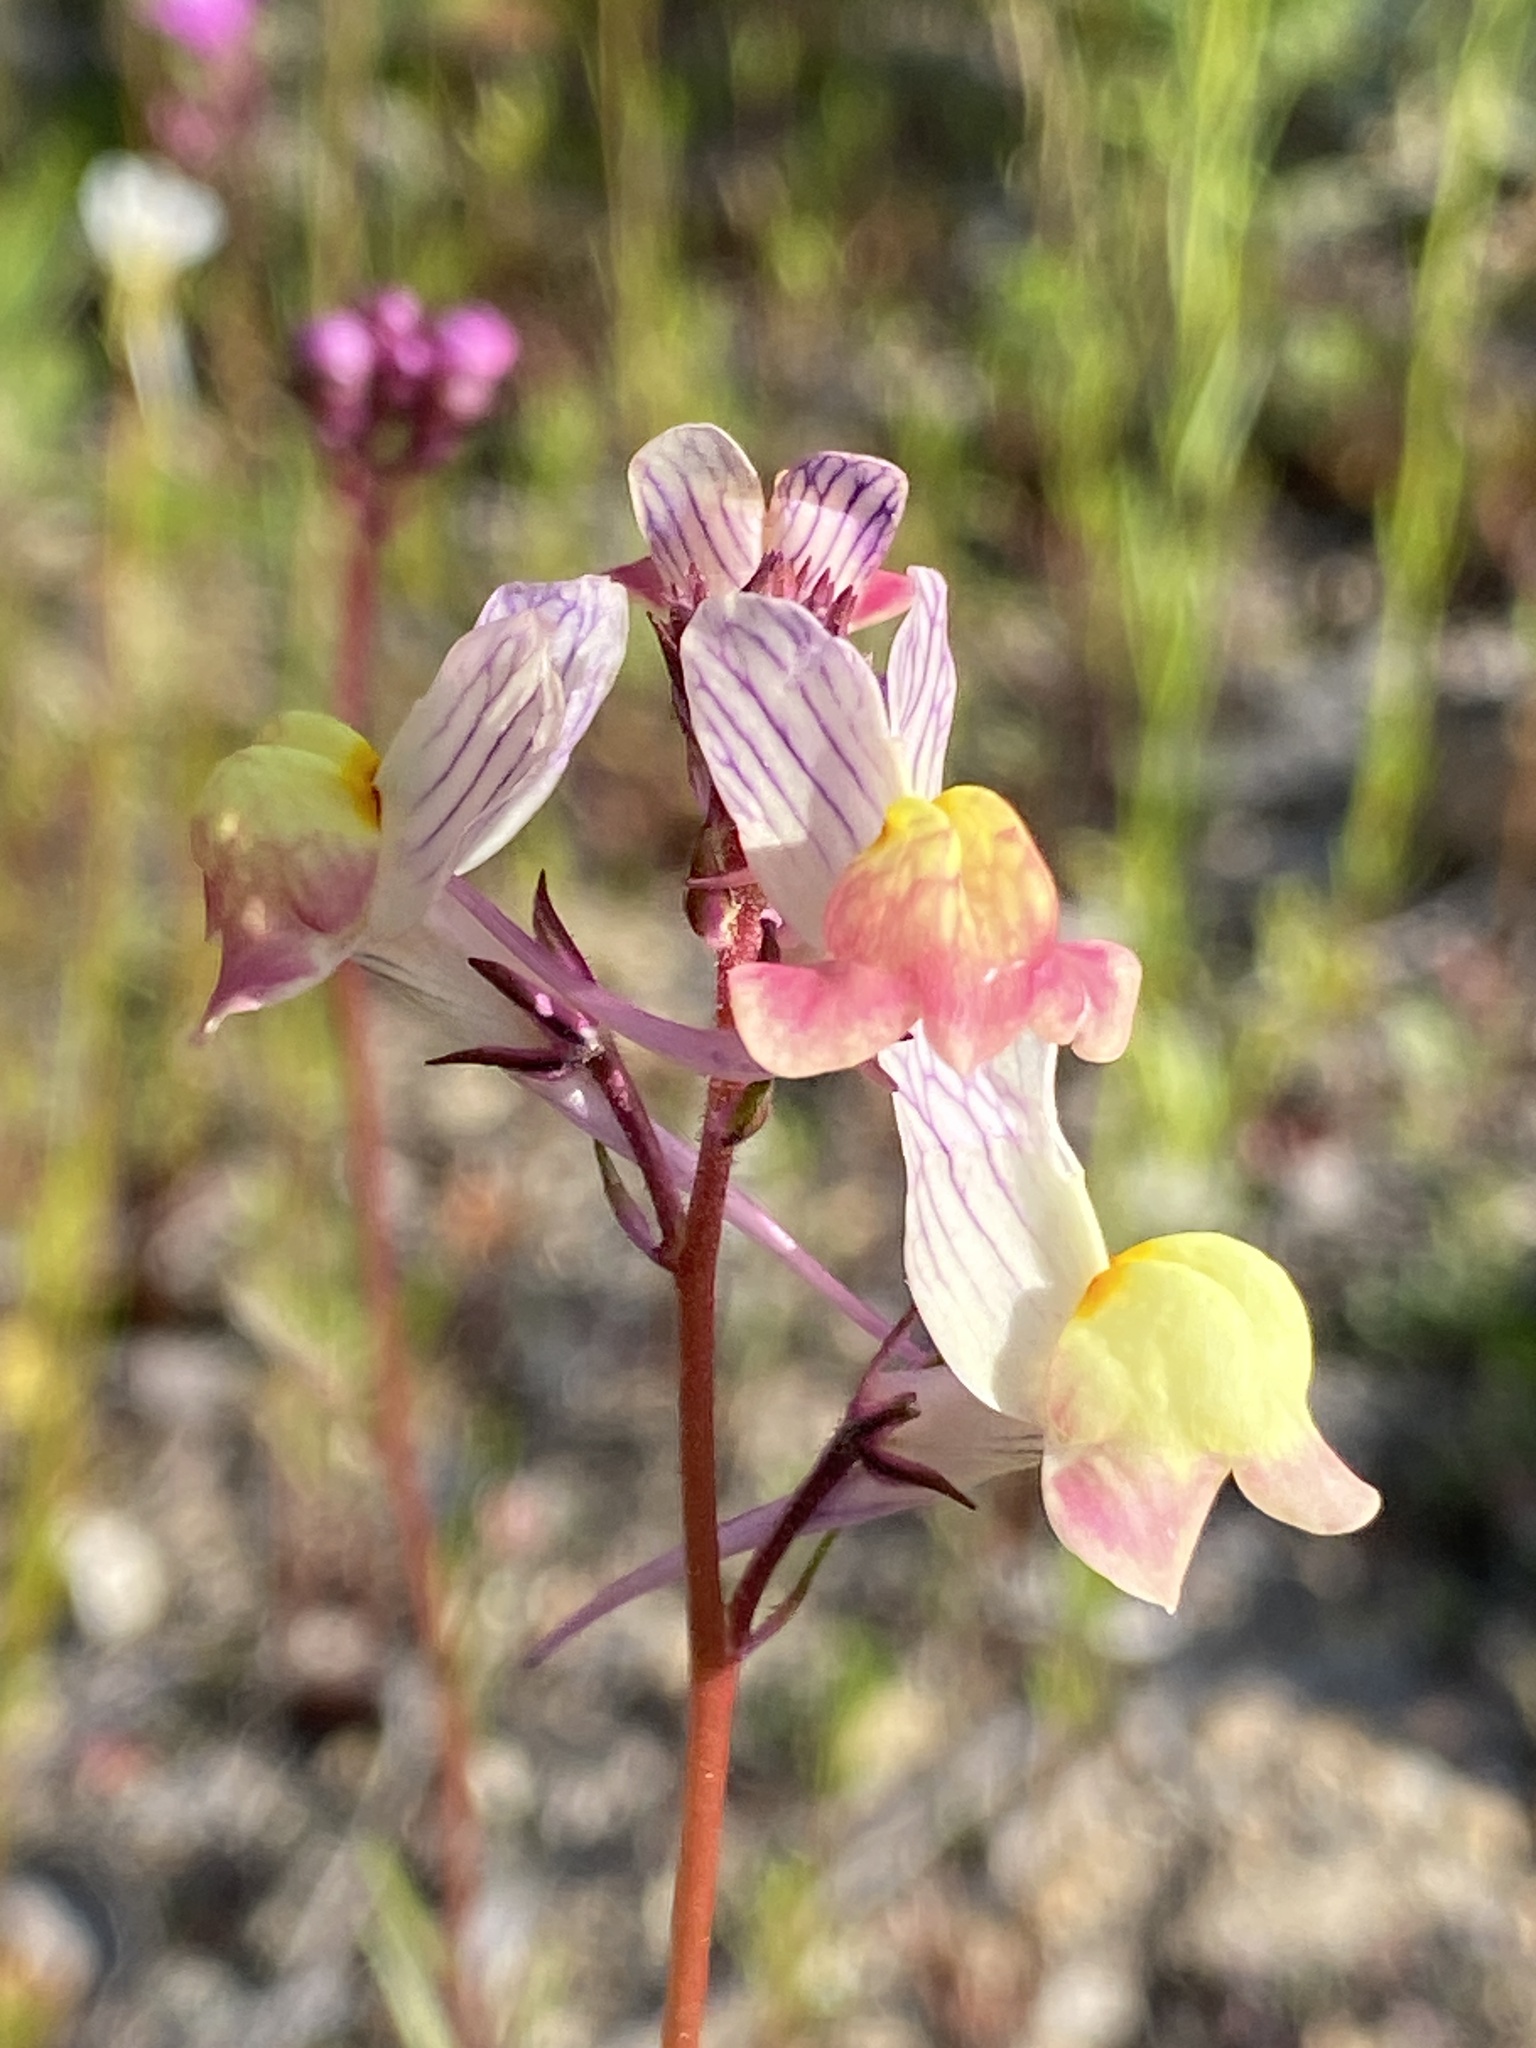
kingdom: Plantae
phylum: Tracheophyta
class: Magnoliopsida
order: Lamiales
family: Plantaginaceae
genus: Linaria
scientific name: Linaria maroccana
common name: Moroccan toadflax
